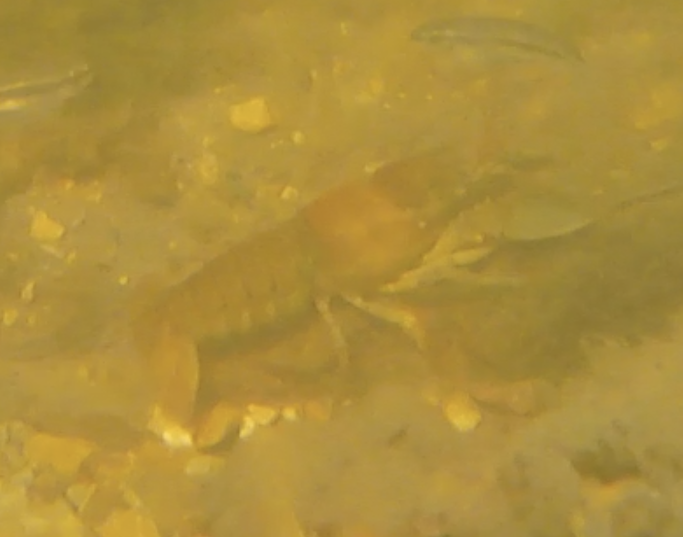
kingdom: Animalia
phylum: Arthropoda
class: Malacostraca
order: Decapoda
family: Cambaridae
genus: Faxonius
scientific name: Faxonius virilis
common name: Virile crayfish
